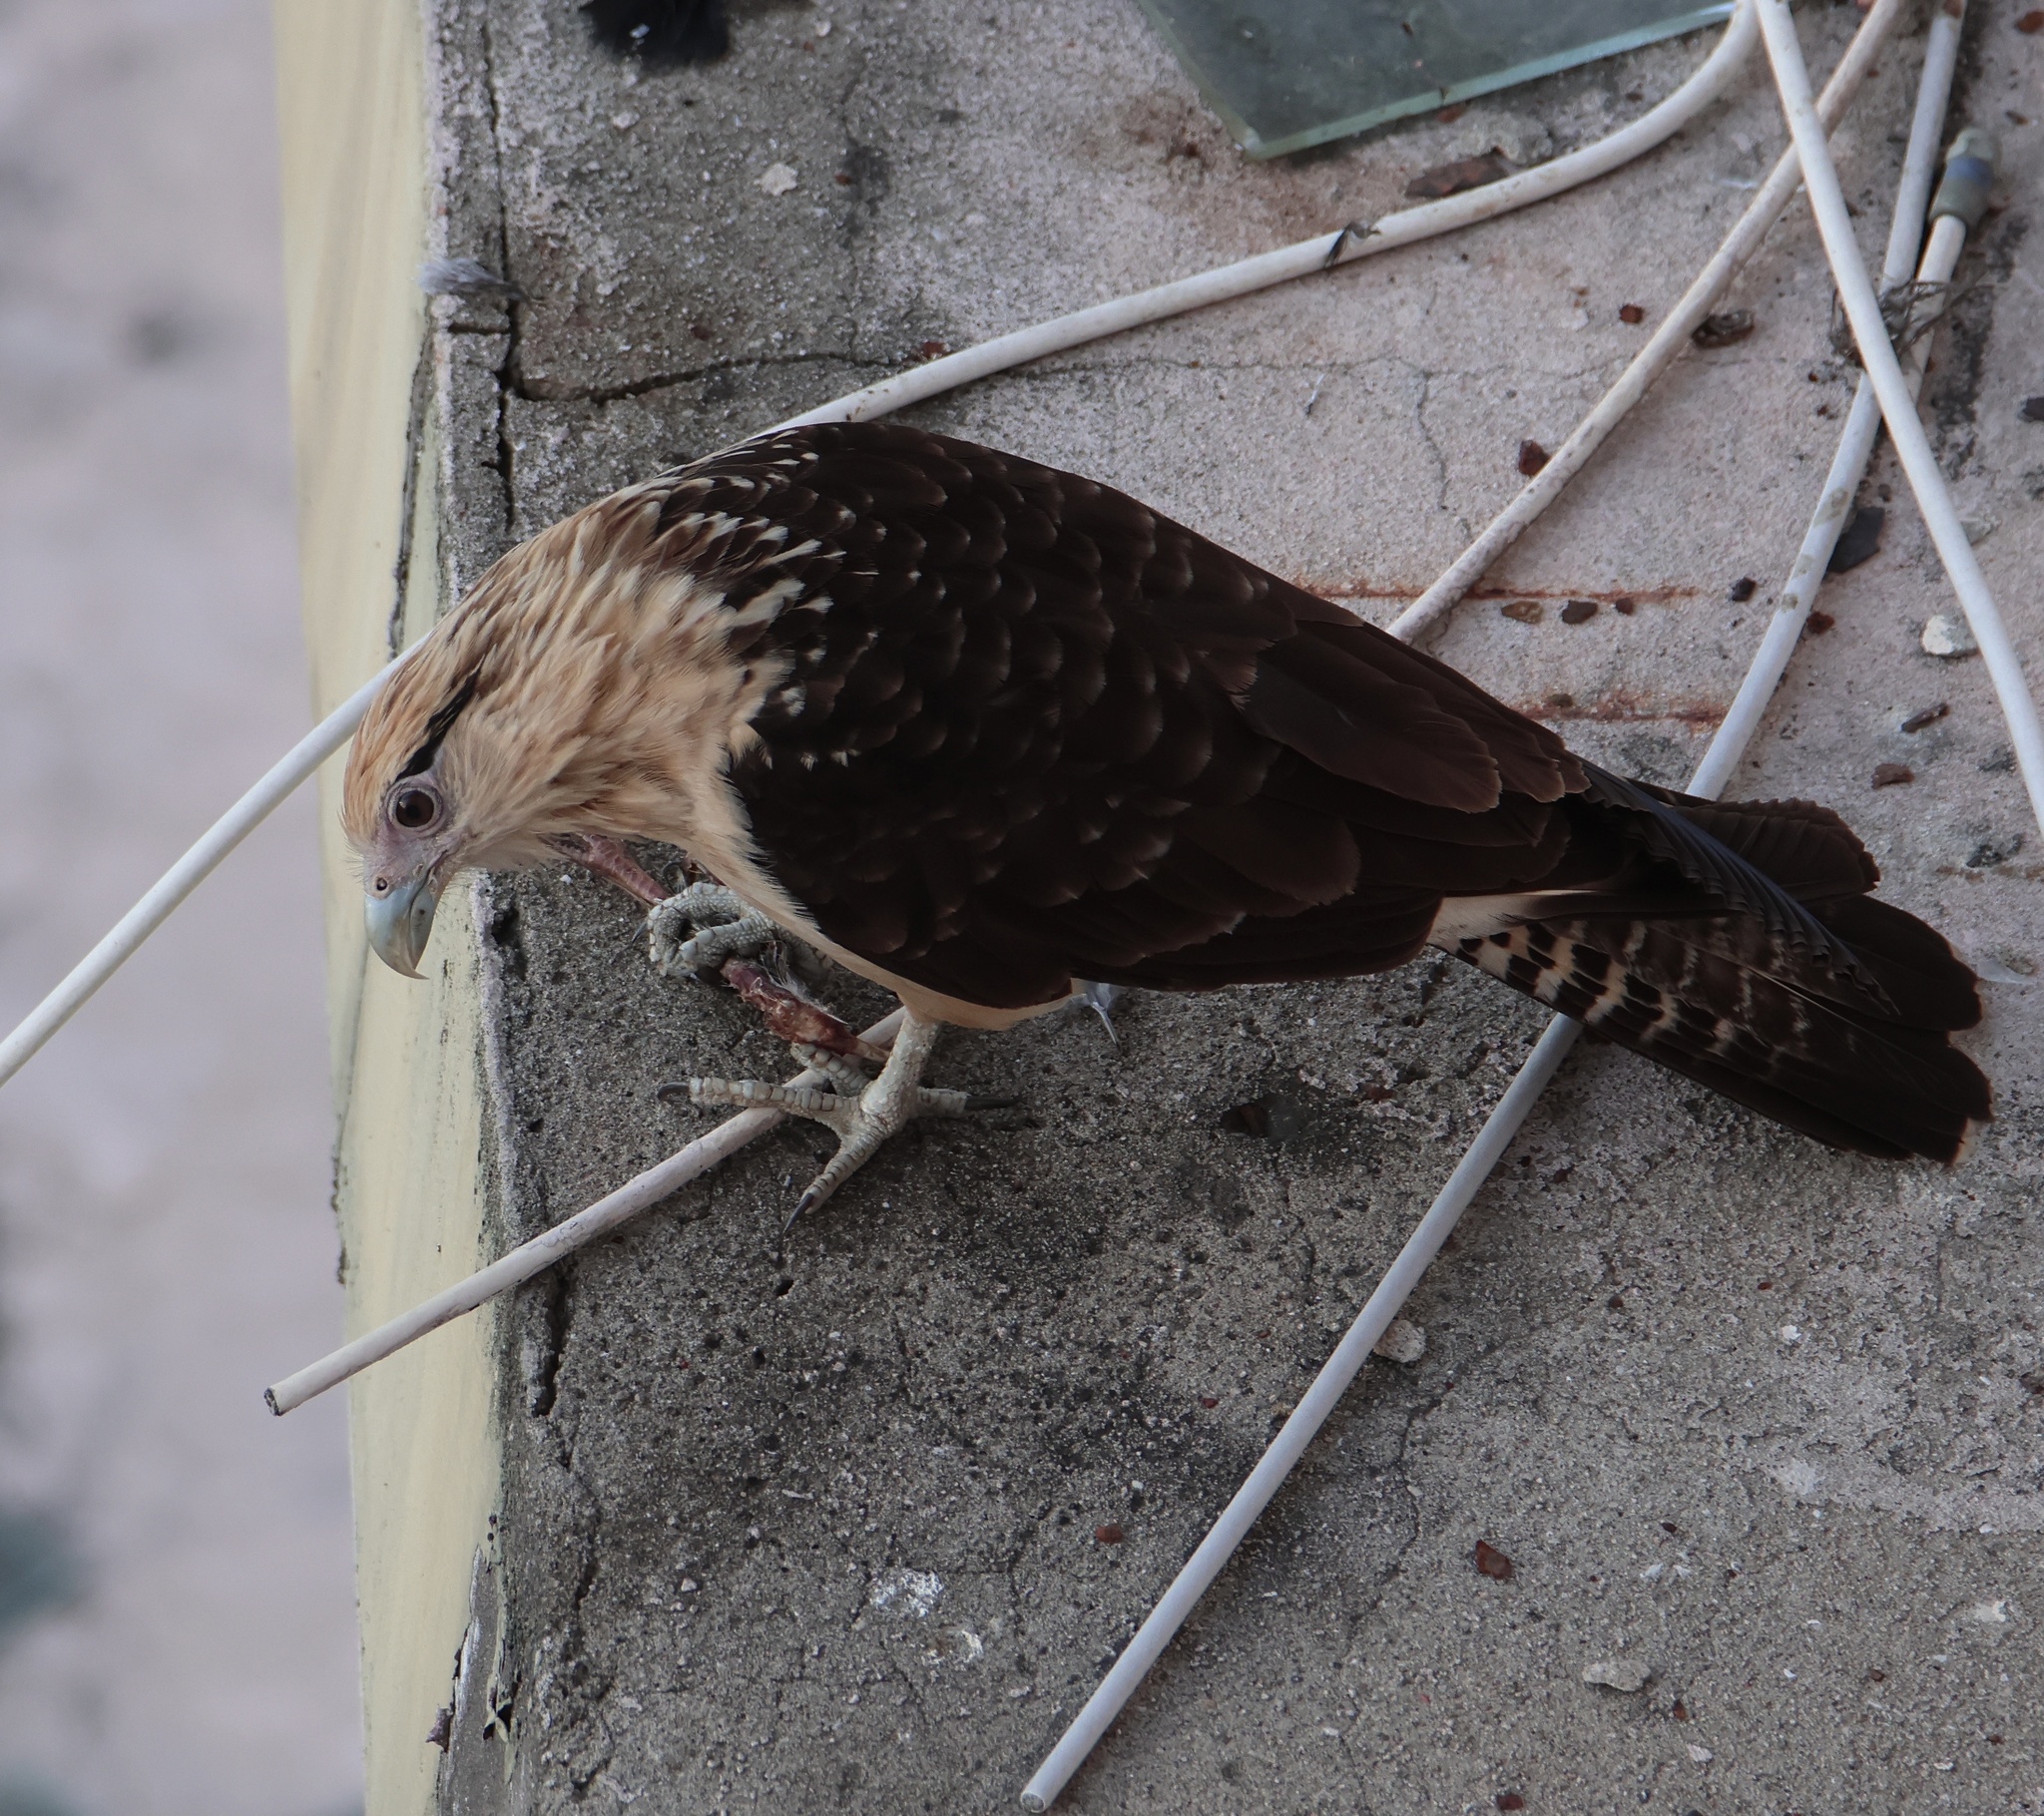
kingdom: Animalia
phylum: Chordata
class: Aves
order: Falconiformes
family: Falconidae
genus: Daptrius
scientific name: Daptrius
